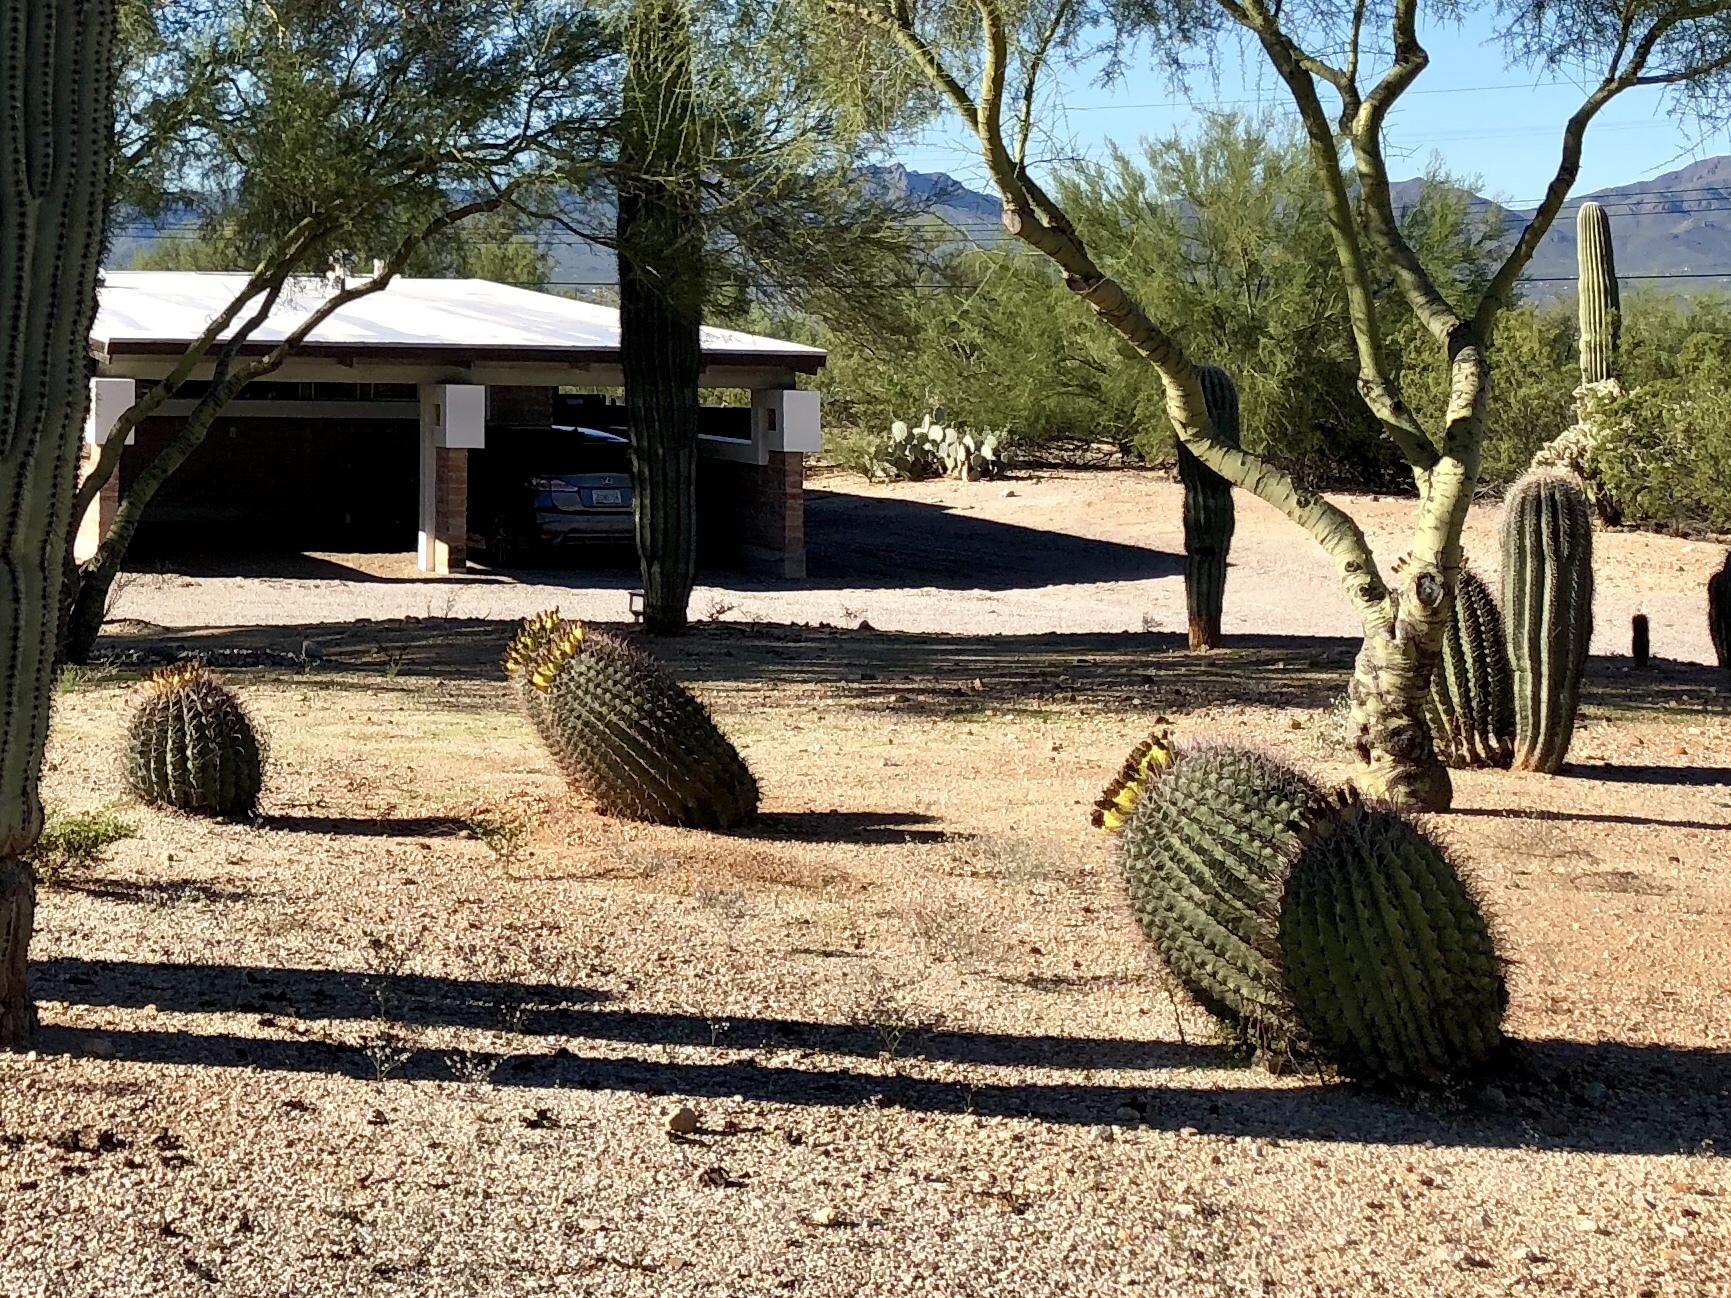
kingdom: Plantae
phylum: Tracheophyta
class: Magnoliopsida
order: Caryophyllales
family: Cactaceae
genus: Ferocactus
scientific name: Ferocactus wislizeni
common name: Candy barrel cactus
